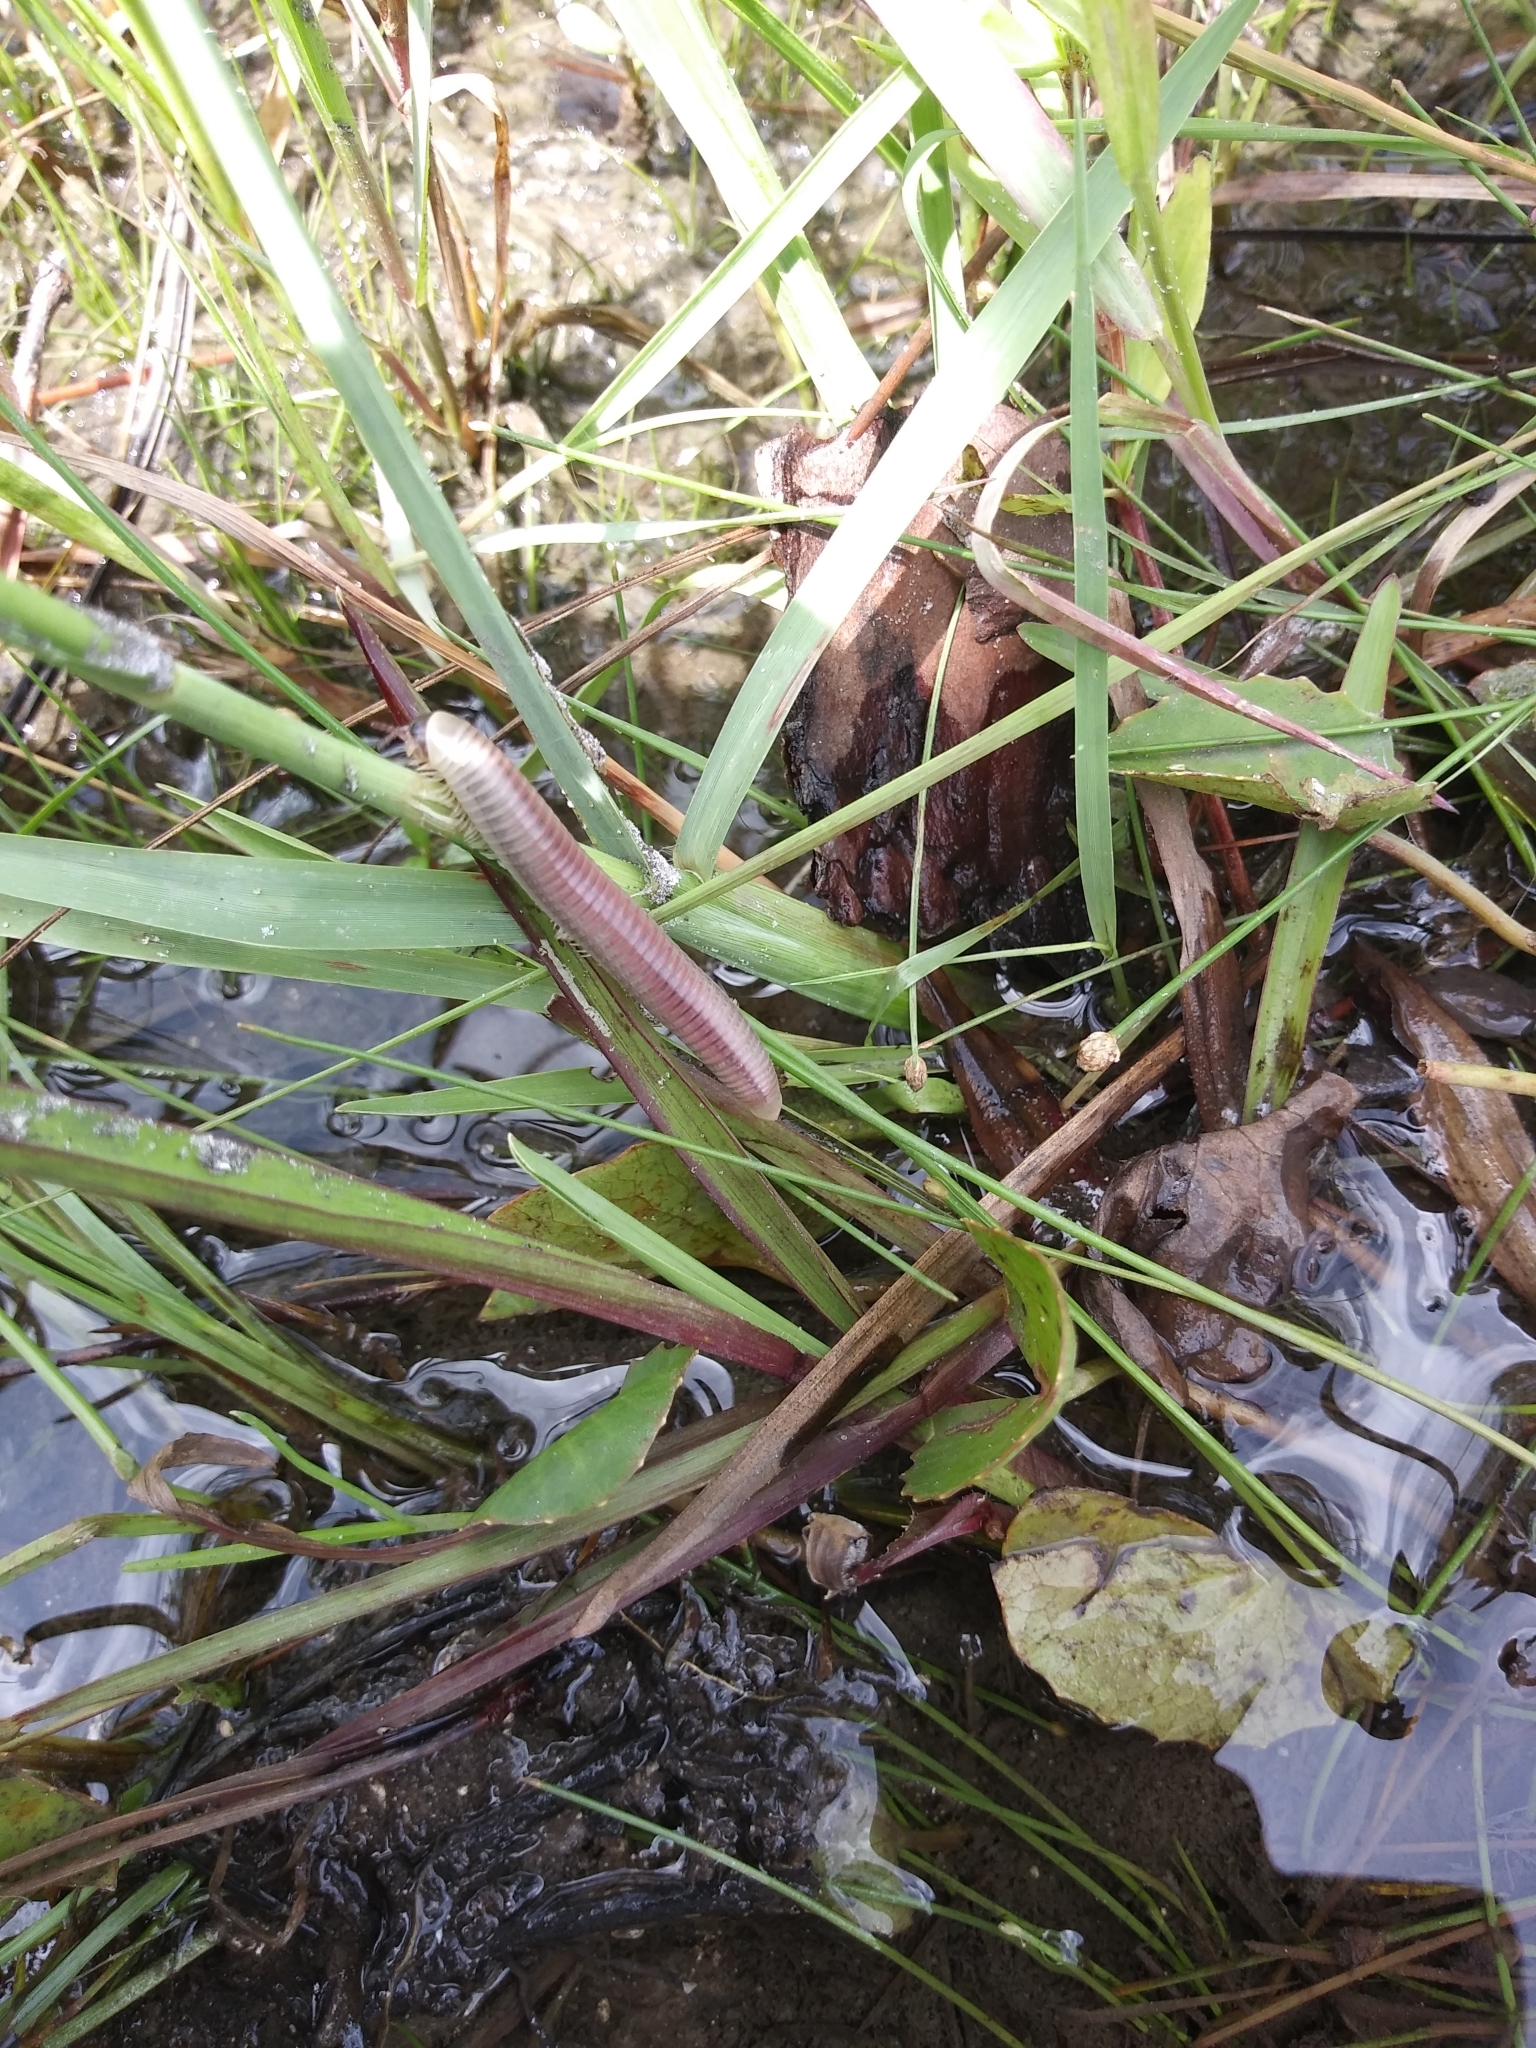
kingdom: Animalia
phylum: Arthropoda
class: Diplopoda
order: Spirobolida
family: Spirobolidae
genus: Chicobolus
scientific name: Chicobolus spinigerus
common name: Florida ivory millipede
